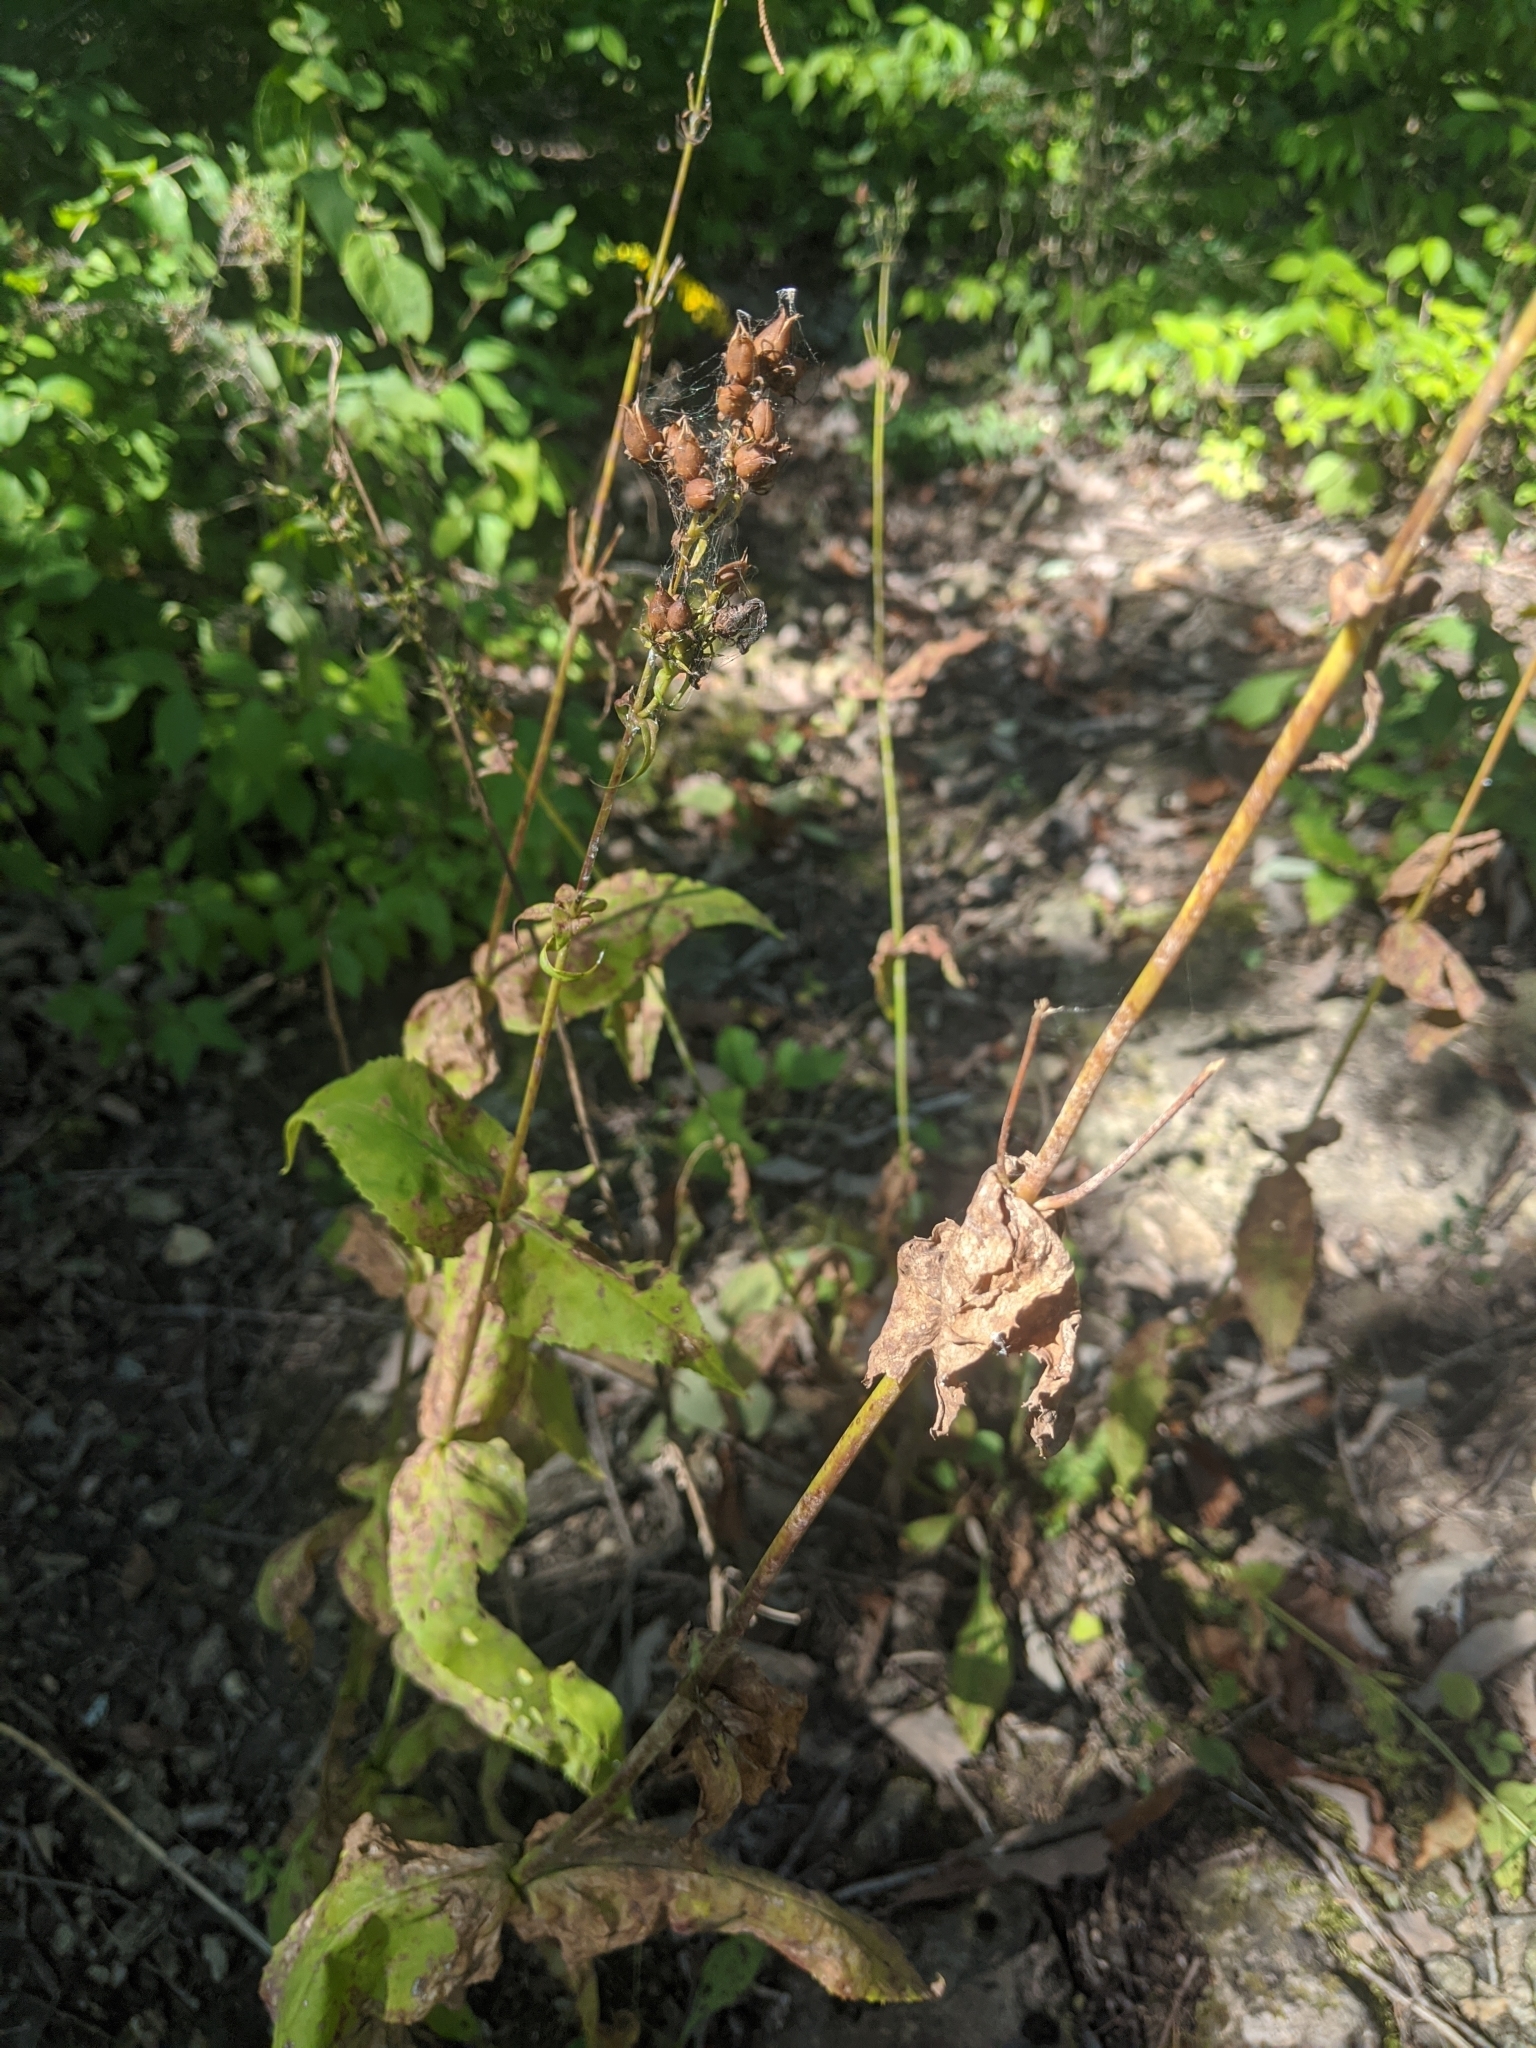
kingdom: Plantae
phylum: Tracheophyta
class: Magnoliopsida
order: Lamiales
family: Plantaginaceae
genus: Penstemon
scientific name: Penstemon digitalis
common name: Foxglove beardtongue
